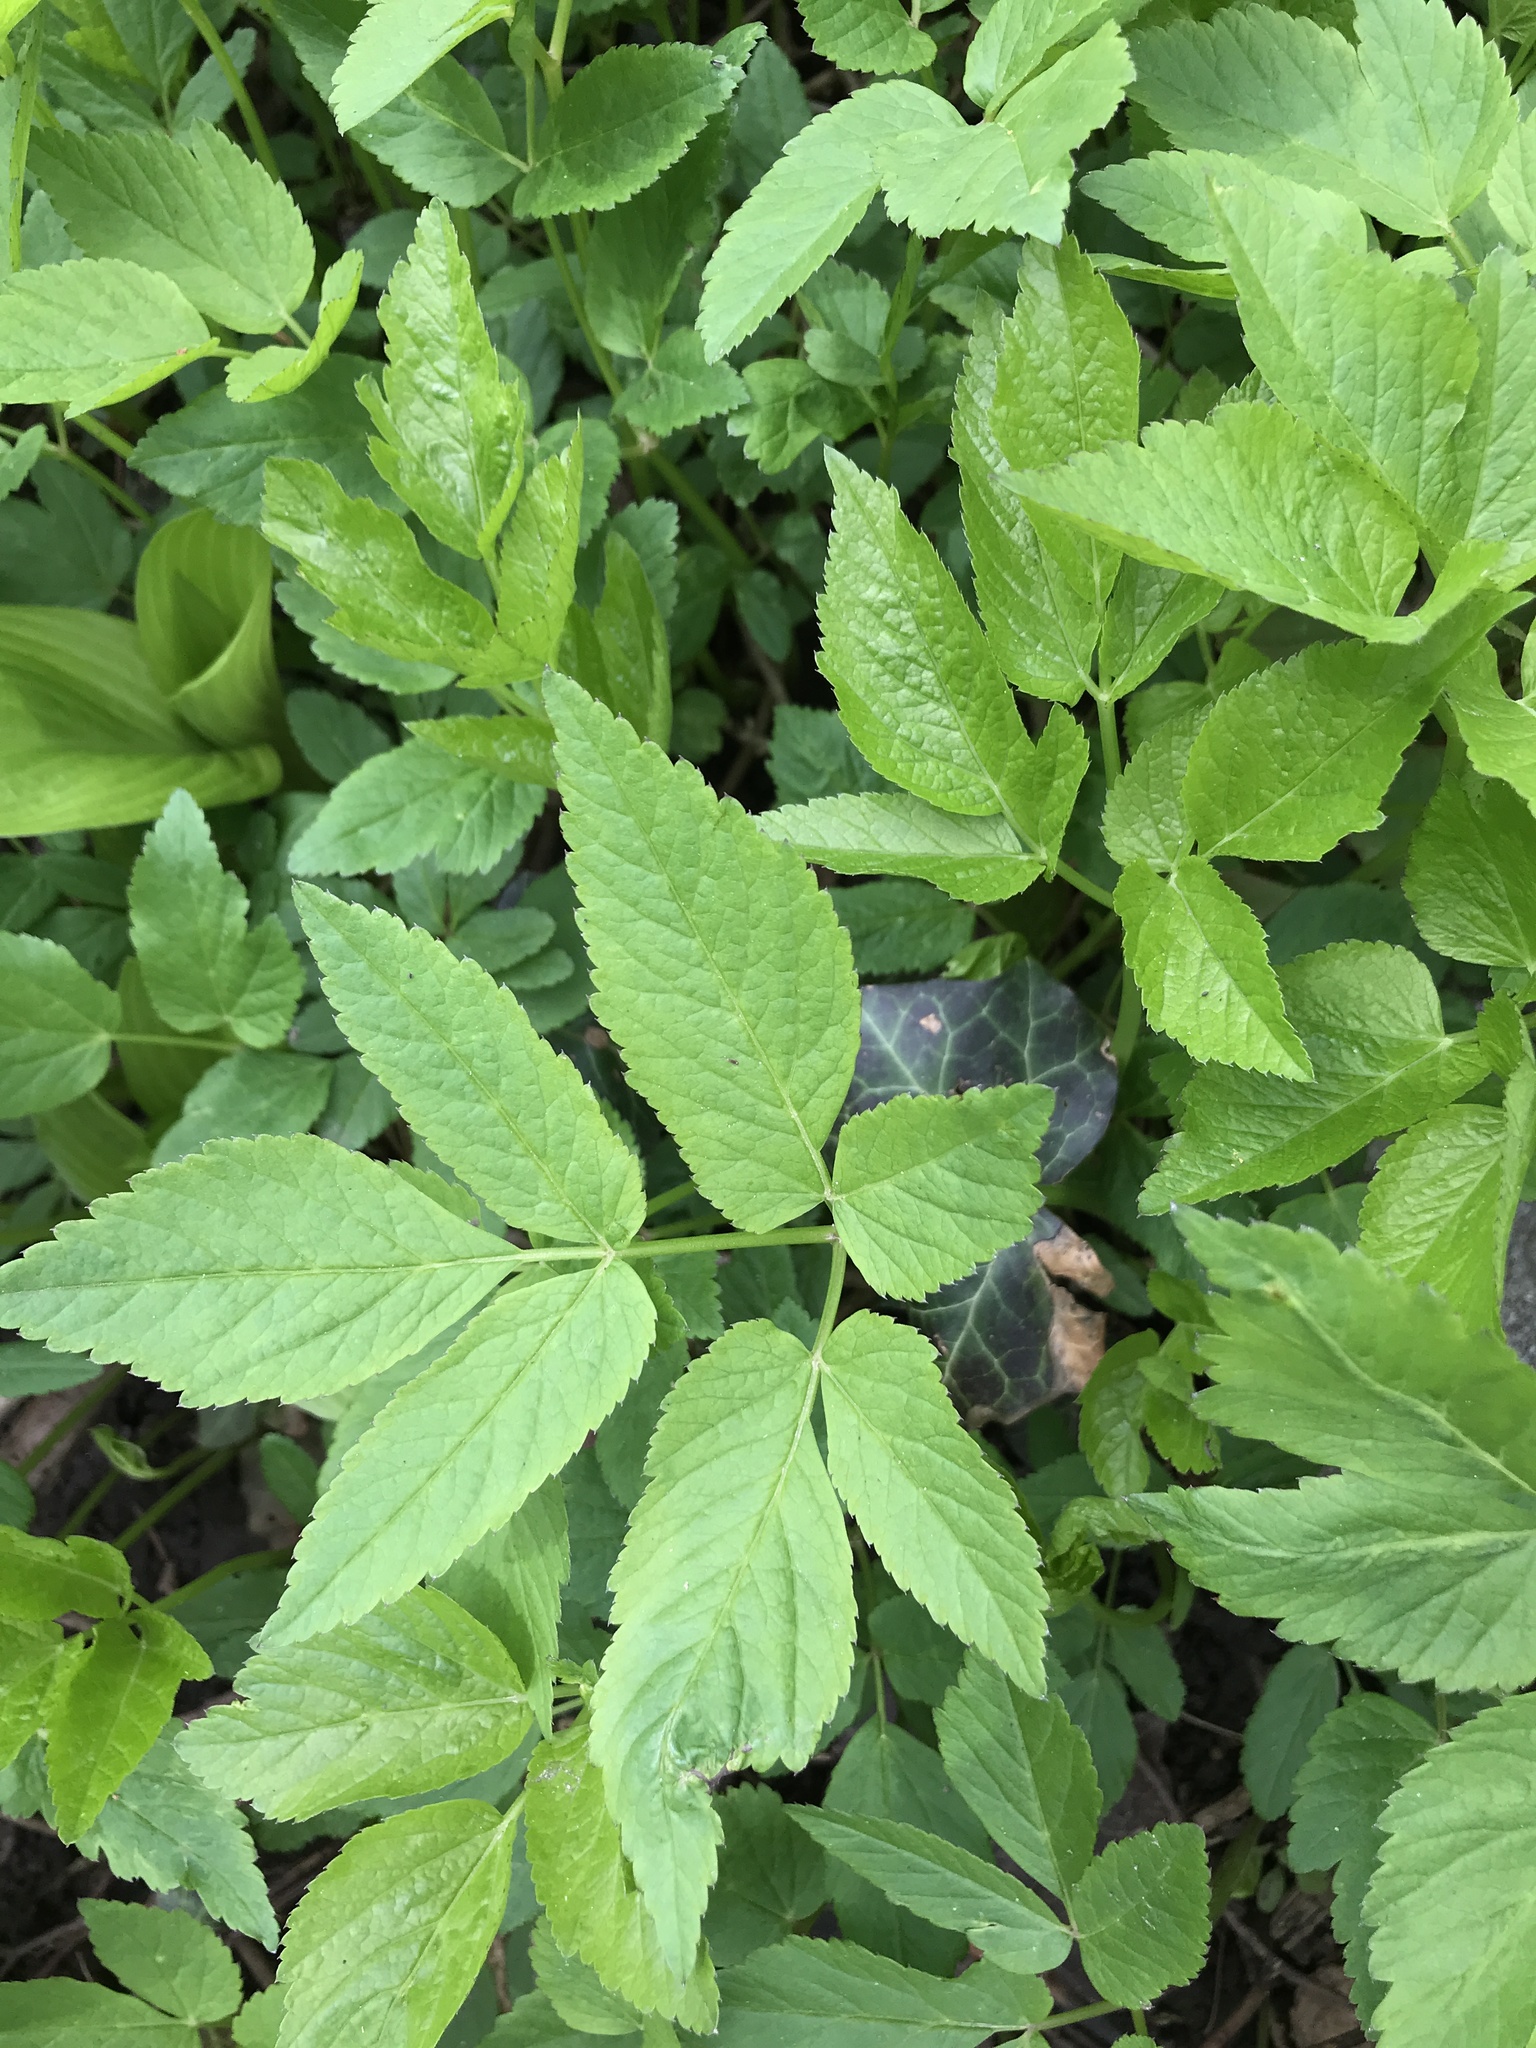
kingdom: Plantae
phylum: Tracheophyta
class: Magnoliopsida
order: Apiales
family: Apiaceae
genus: Aegopodium
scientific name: Aegopodium podagraria
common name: Ground-elder
